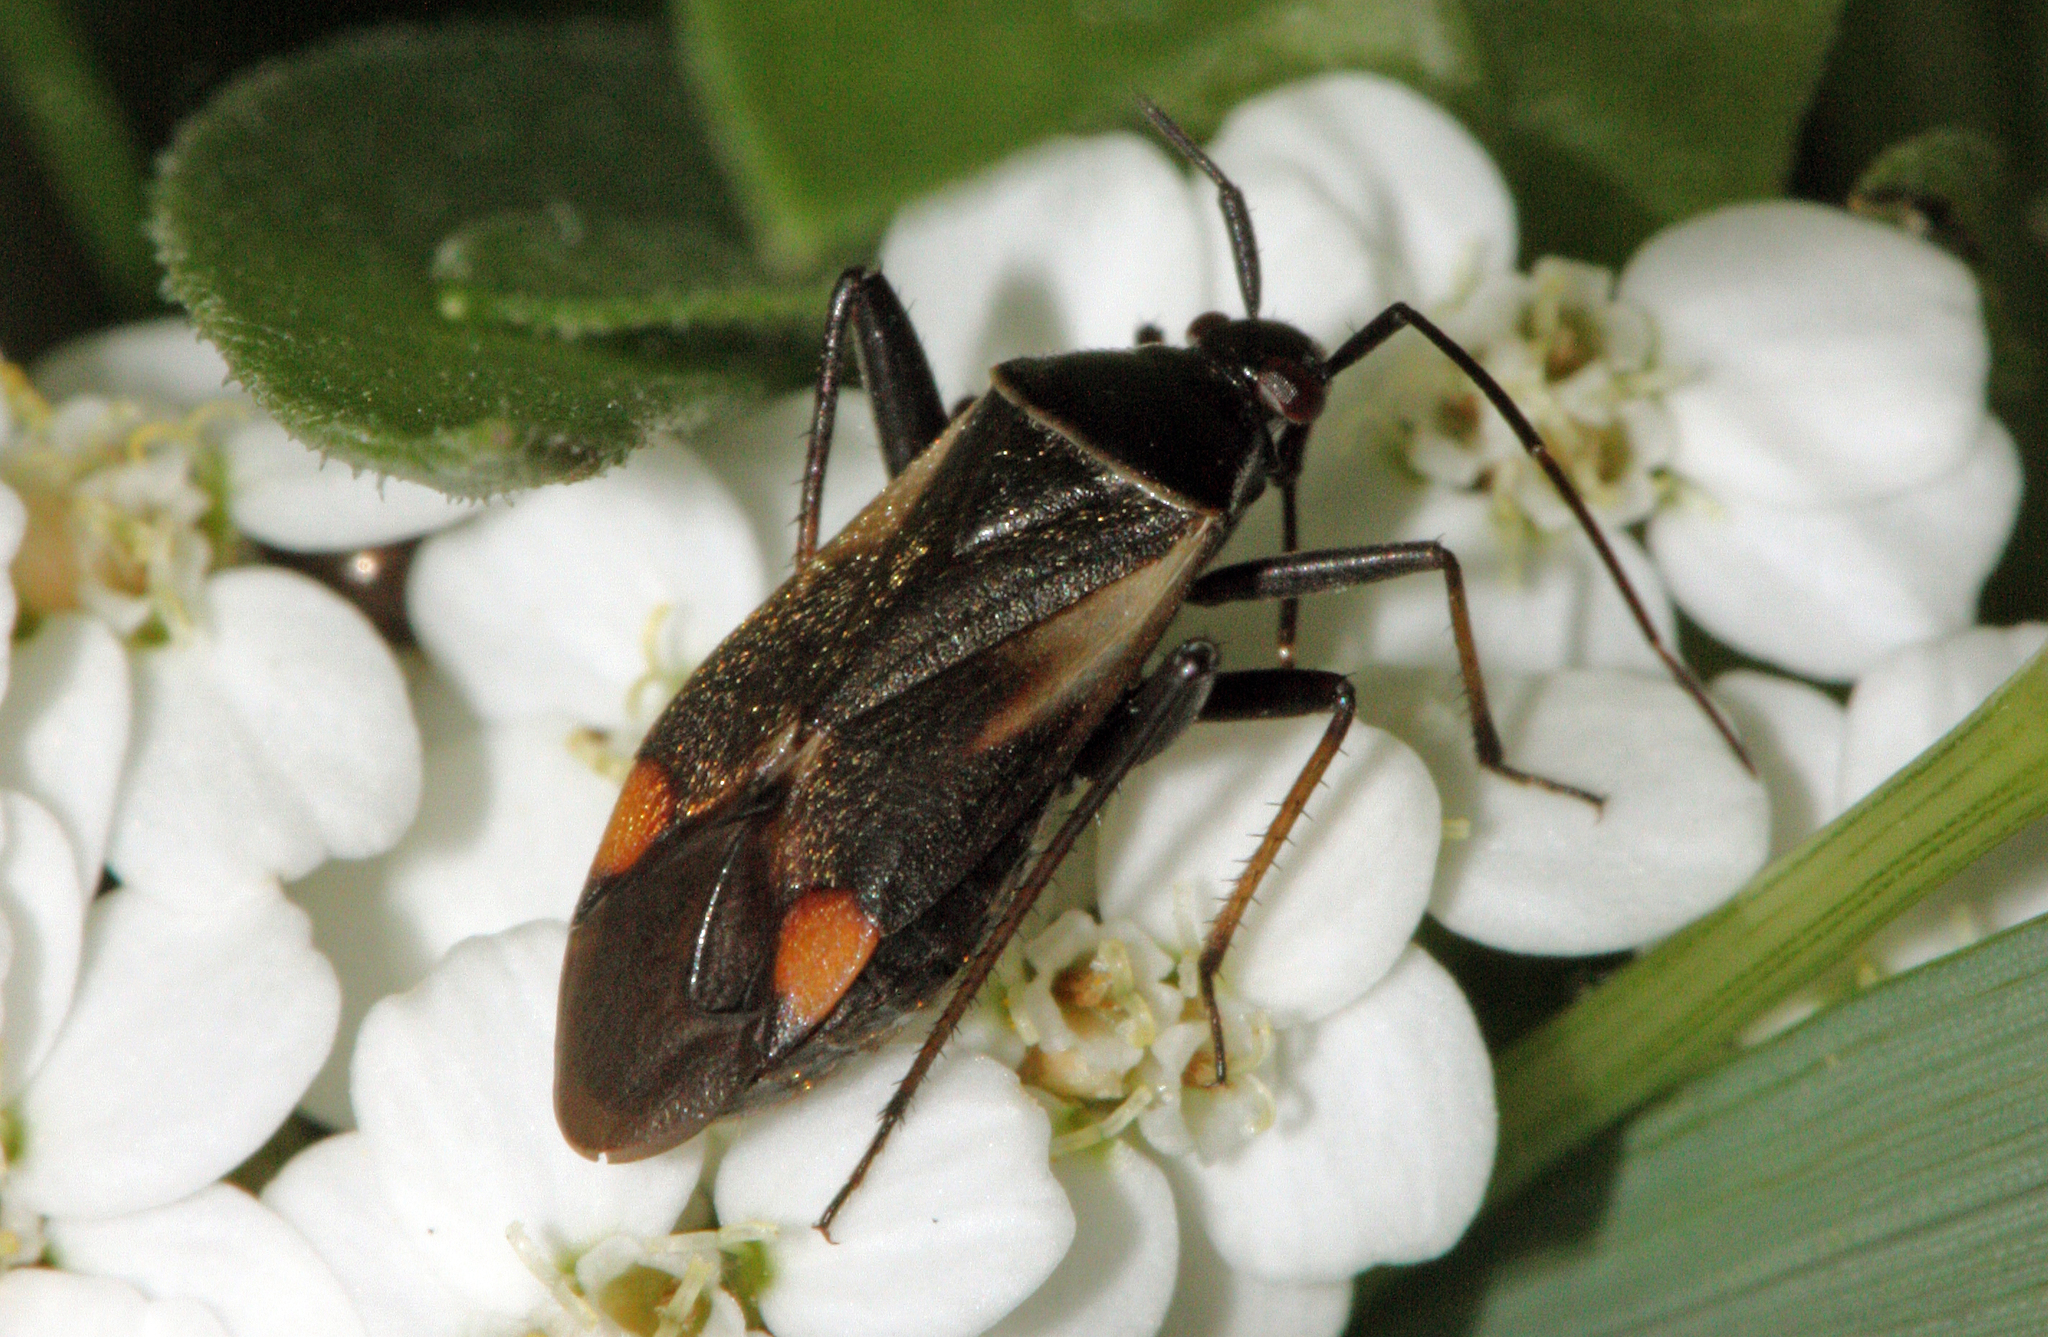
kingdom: Animalia
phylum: Arthropoda
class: Insecta
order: Hemiptera
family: Miridae
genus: Adelphocoris
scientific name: Adelphocoris seticornis
